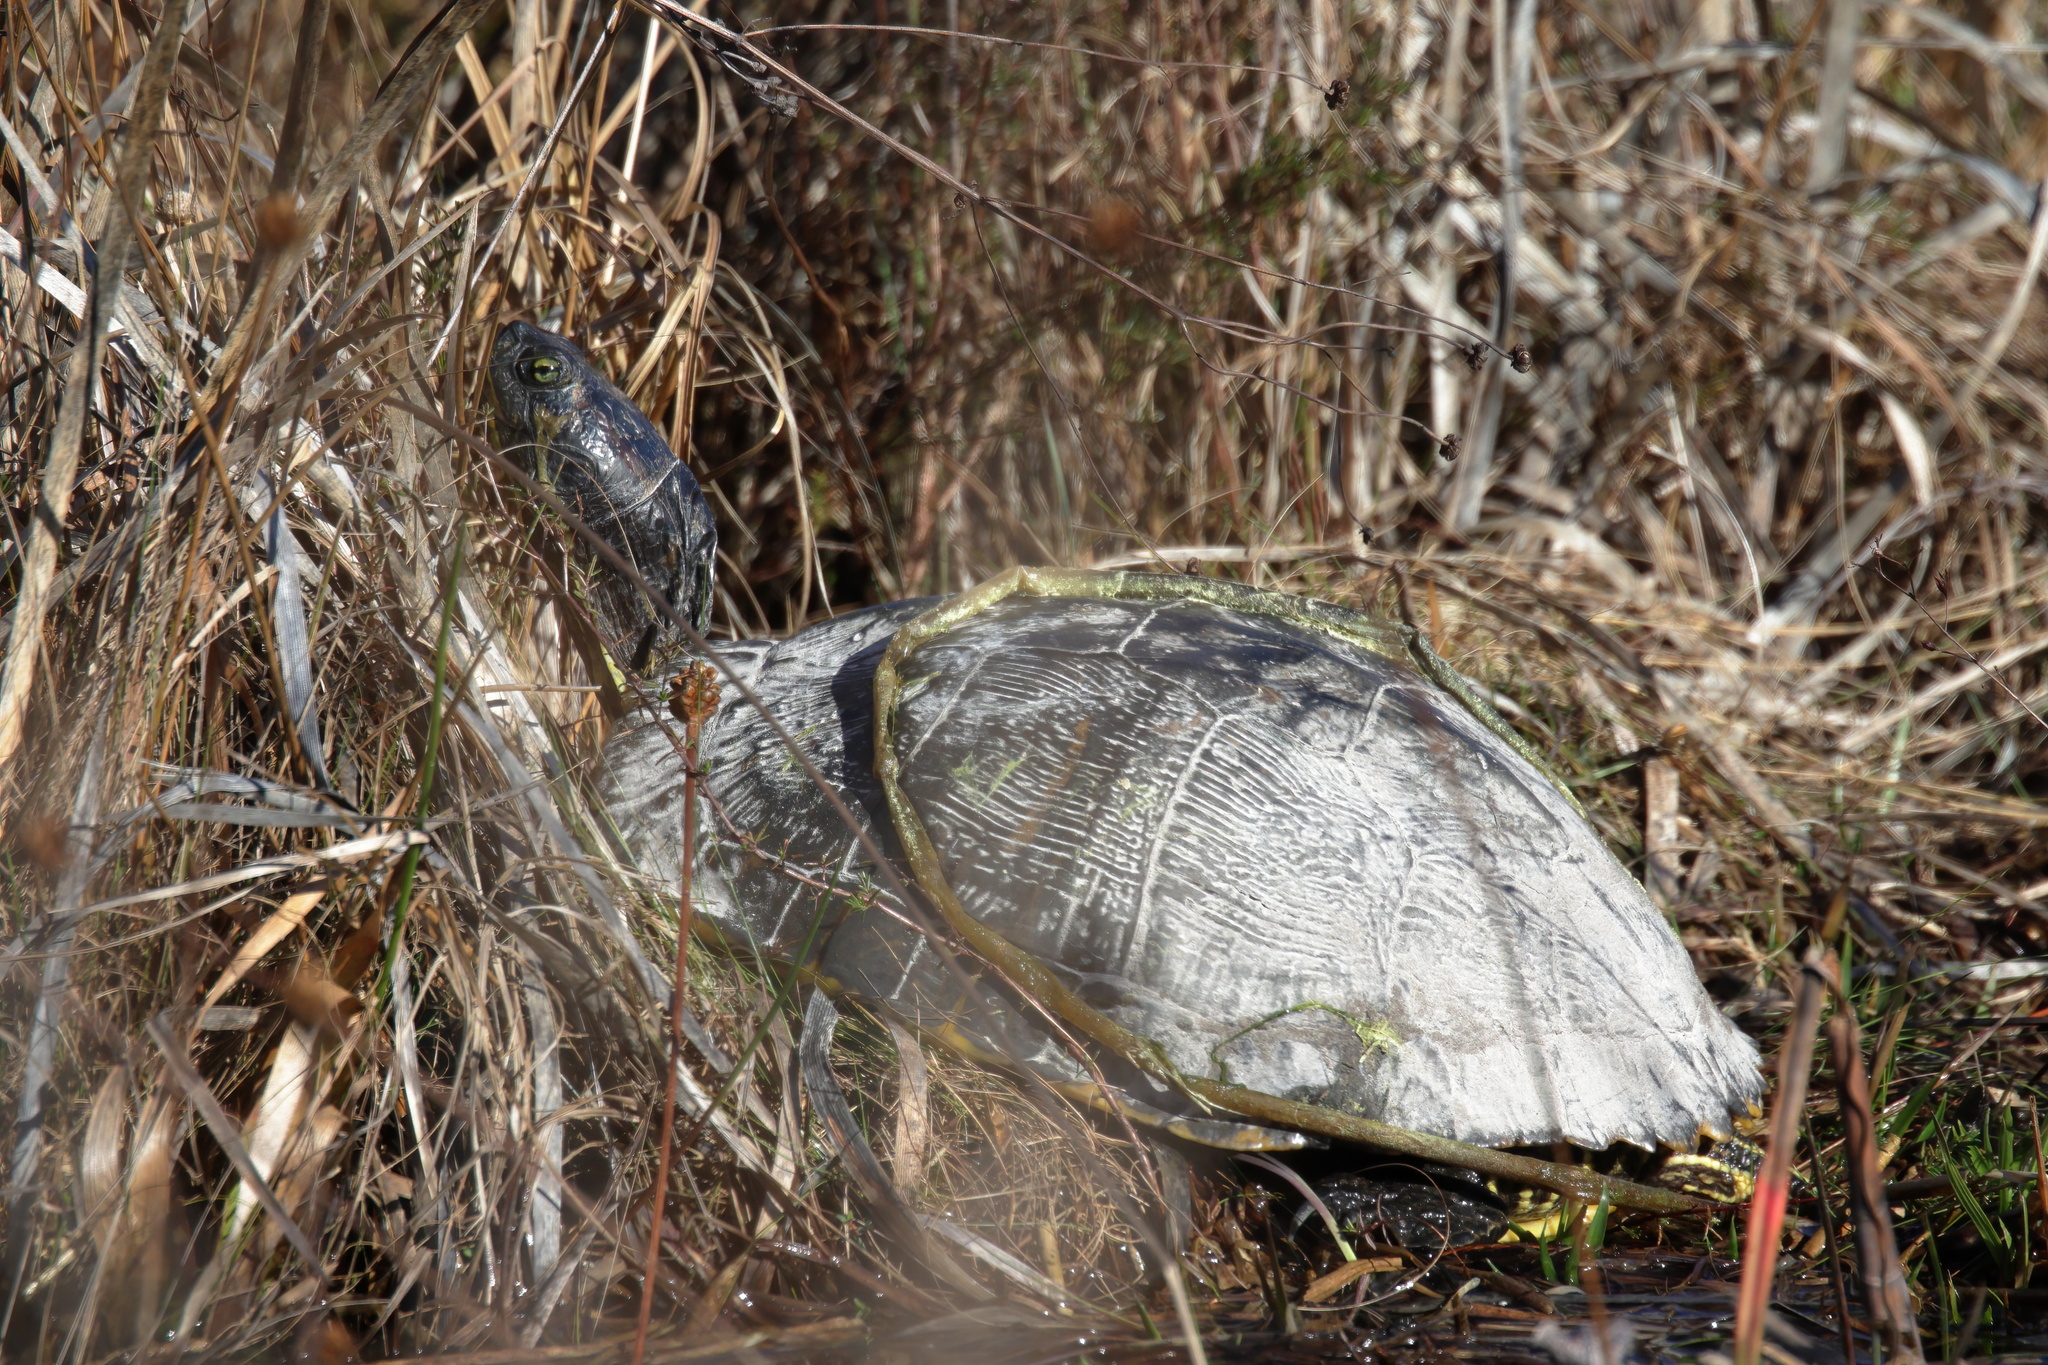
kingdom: Animalia
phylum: Chordata
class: Testudines
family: Emydidae
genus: Trachemys
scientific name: Trachemys scripta
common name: Slider
